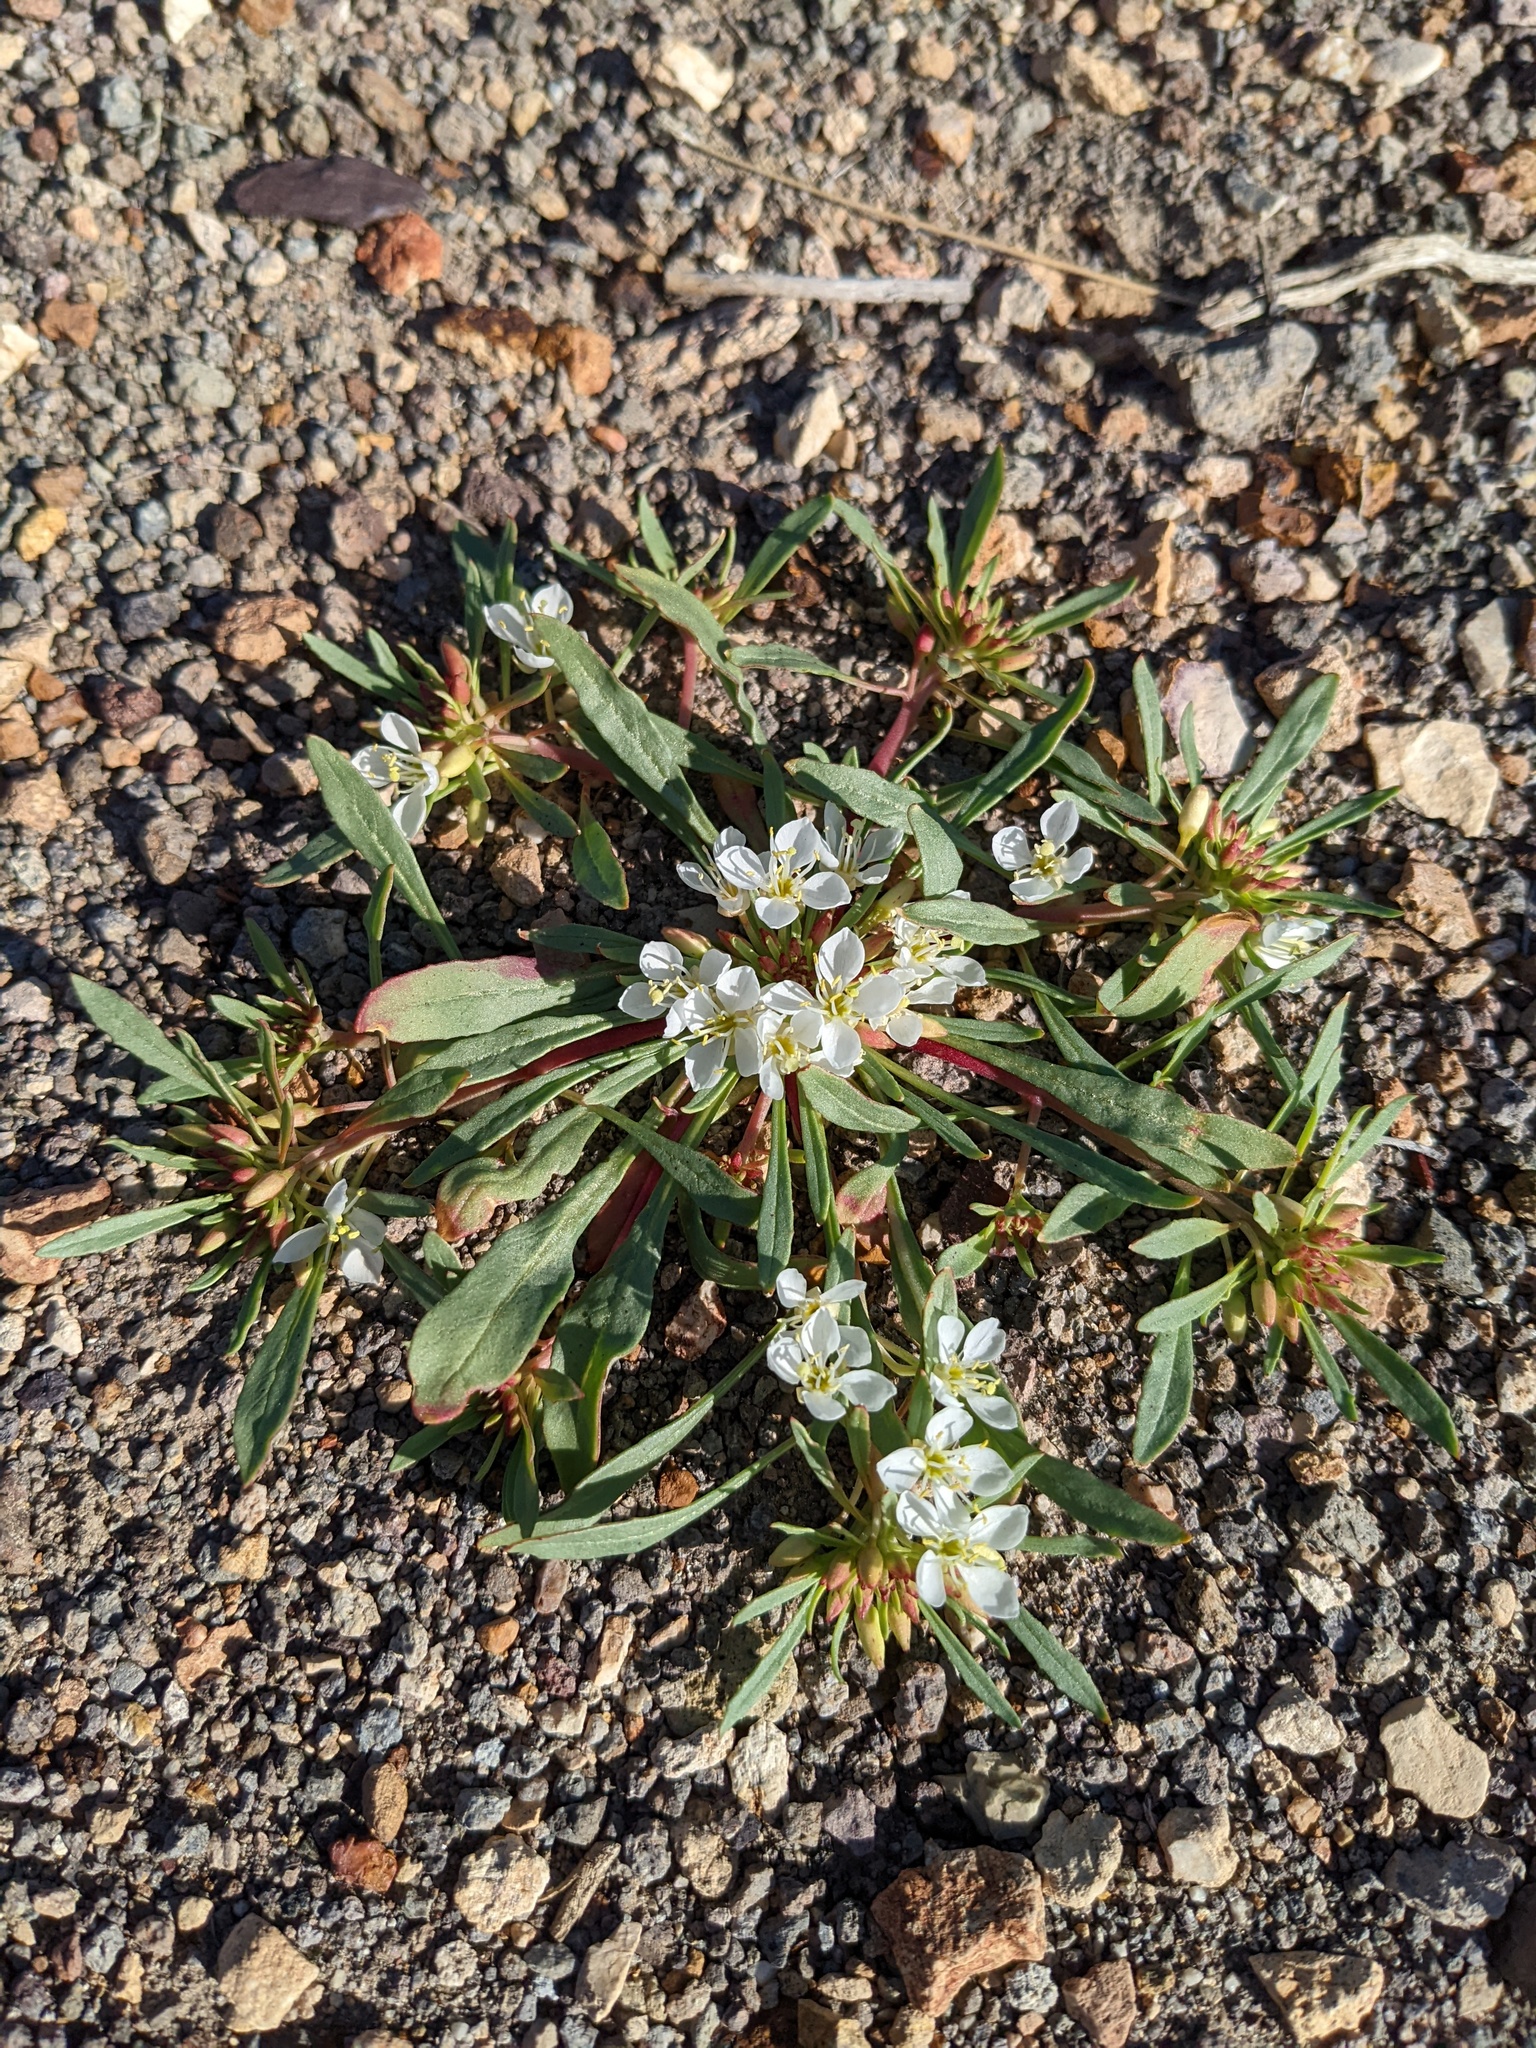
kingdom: Plantae
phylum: Tracheophyta
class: Magnoliopsida
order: Myrtales
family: Onagraceae
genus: Eremothera
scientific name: Eremothera nevadensis
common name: Nevada suncup
